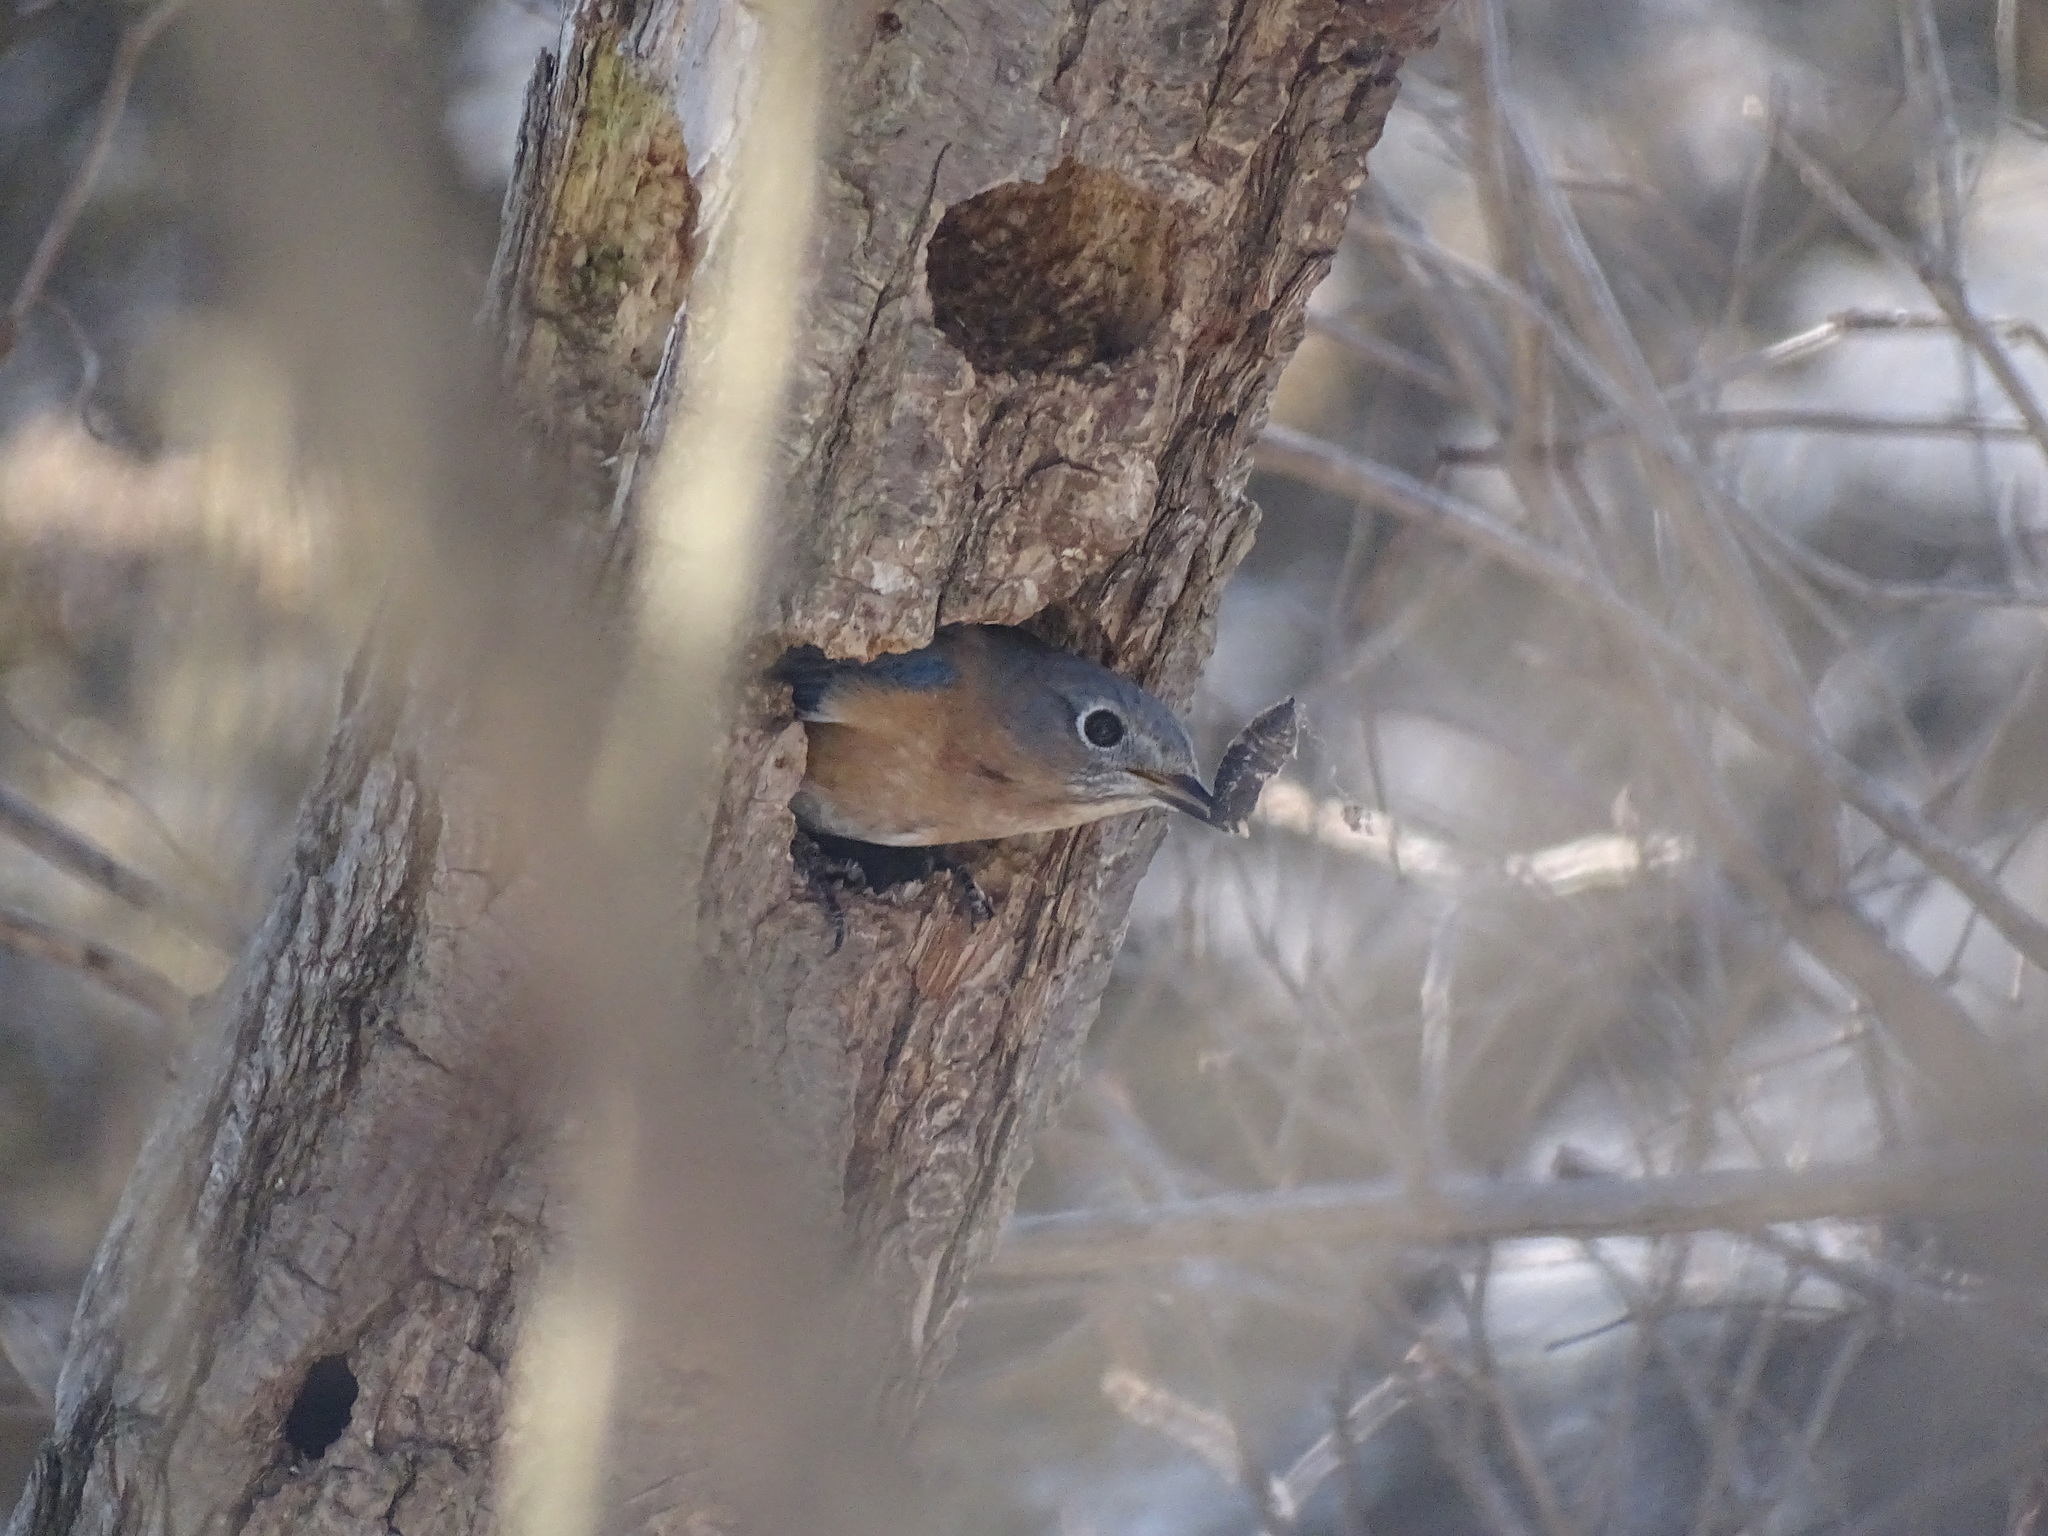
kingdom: Animalia
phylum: Chordata
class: Aves
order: Passeriformes
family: Turdidae
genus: Sialia
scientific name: Sialia sialis
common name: Eastern bluebird
